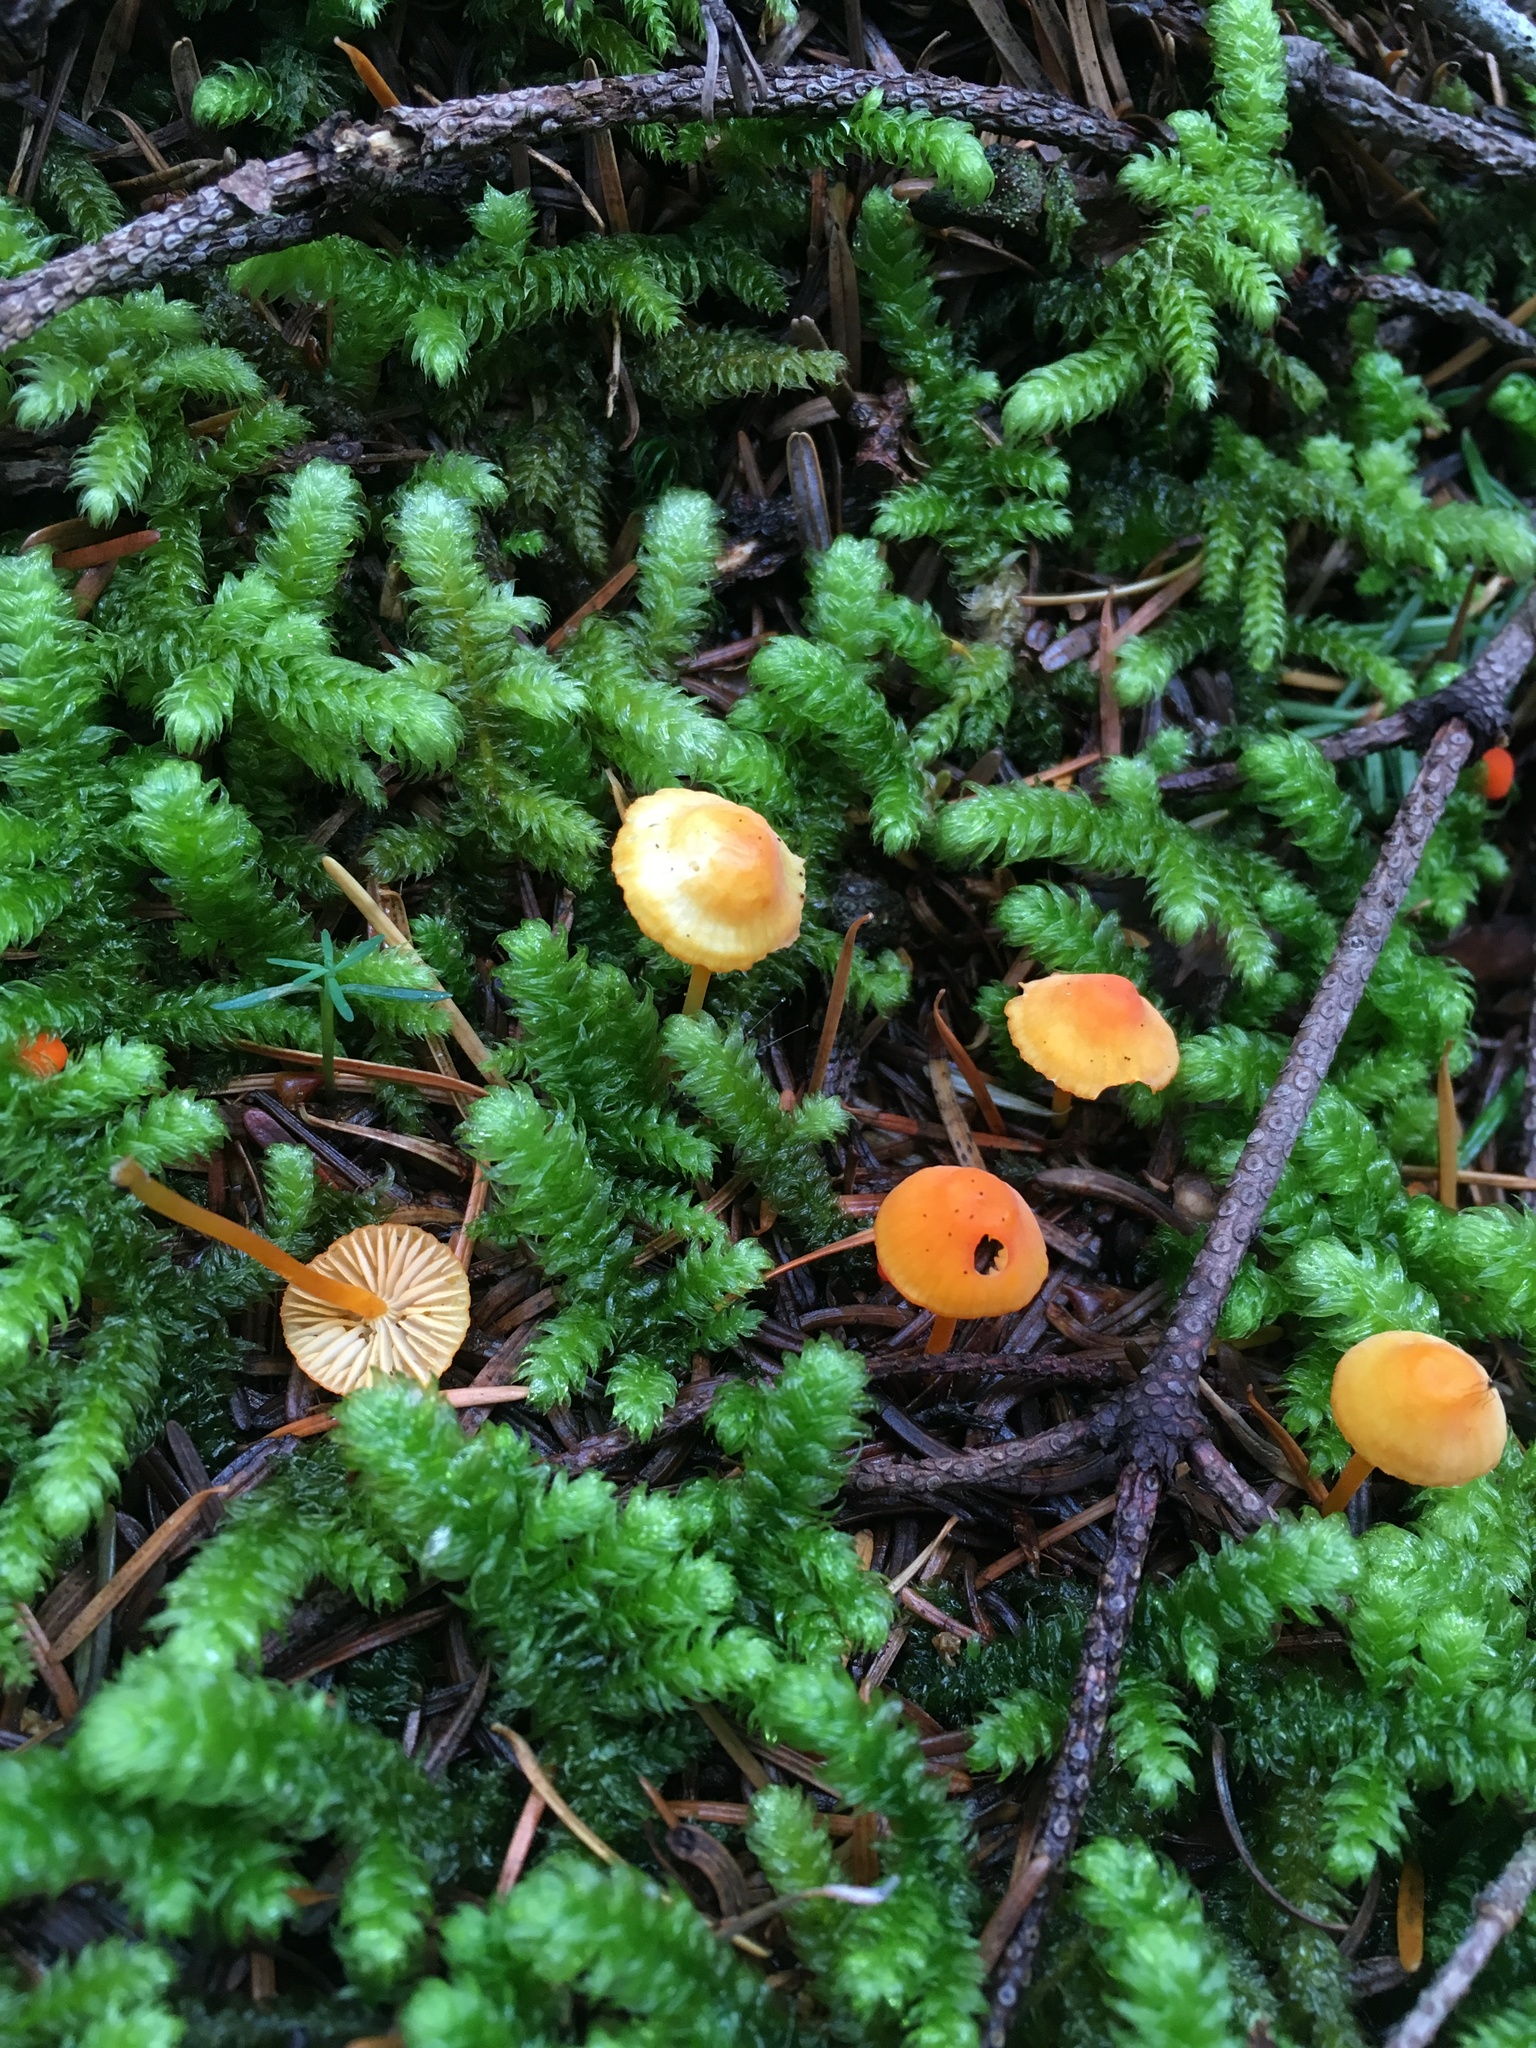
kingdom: Fungi
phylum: Basidiomycota
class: Agaricomycetes
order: Agaricales
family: Mycenaceae
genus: Mycena
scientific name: Mycena strobilinoidea
